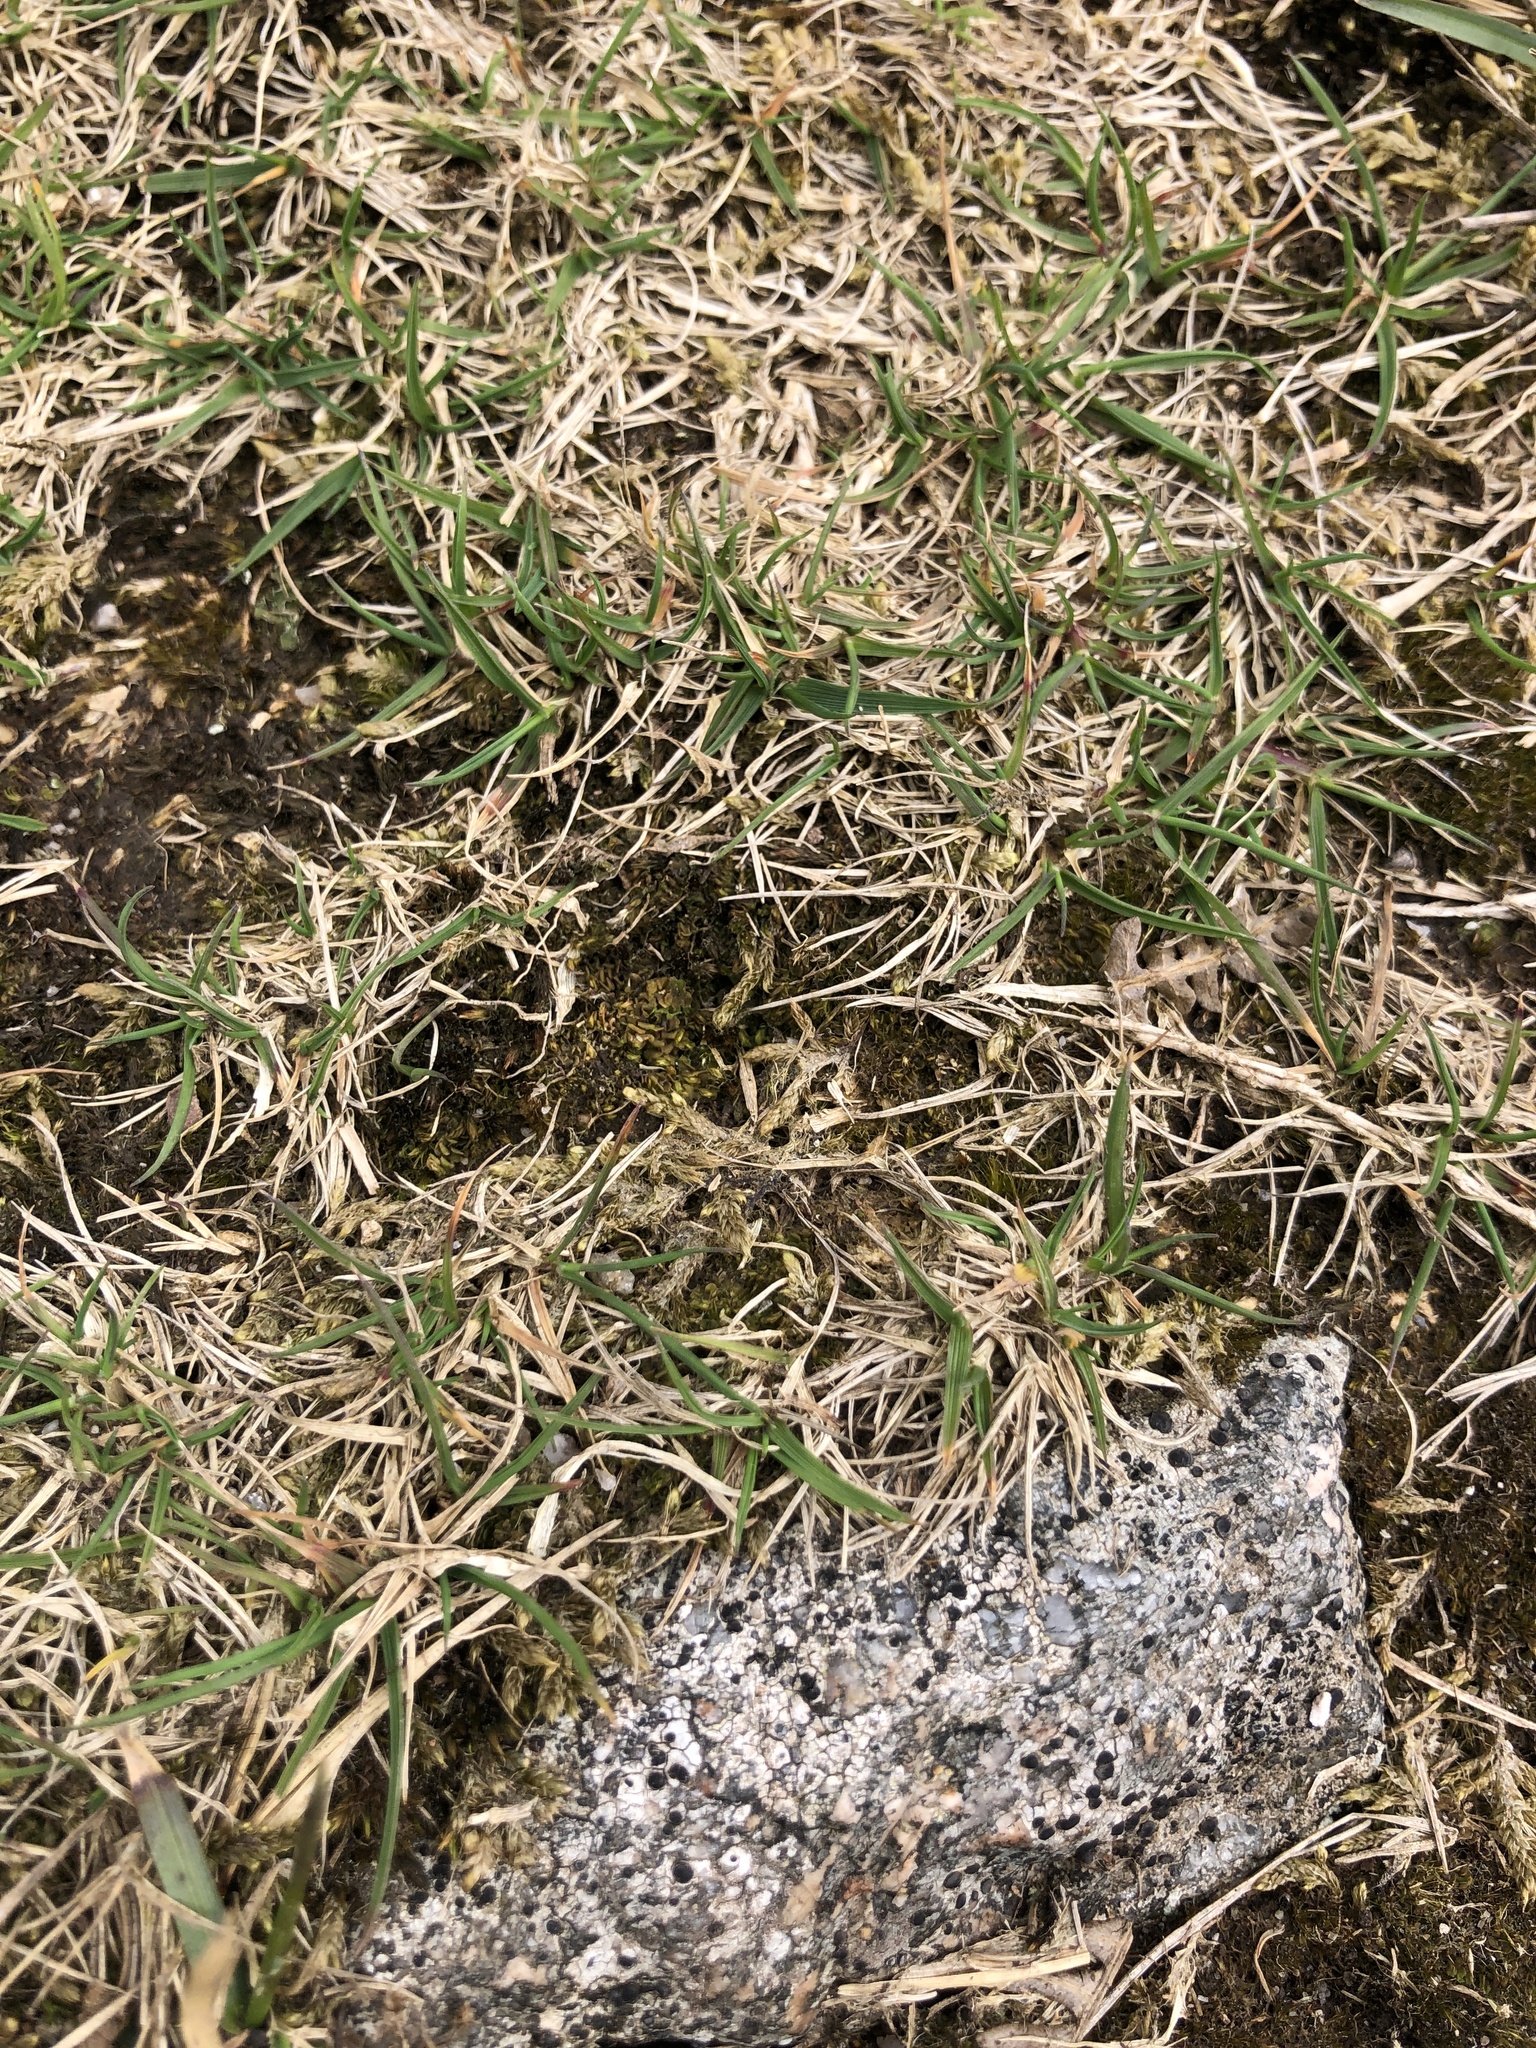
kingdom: Plantae
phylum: Marchantiophyta
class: Jungermanniopsida
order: Jungermanniales
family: Scapaniaceae
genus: Scapania
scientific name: Scapania gracilis
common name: Western earwort
